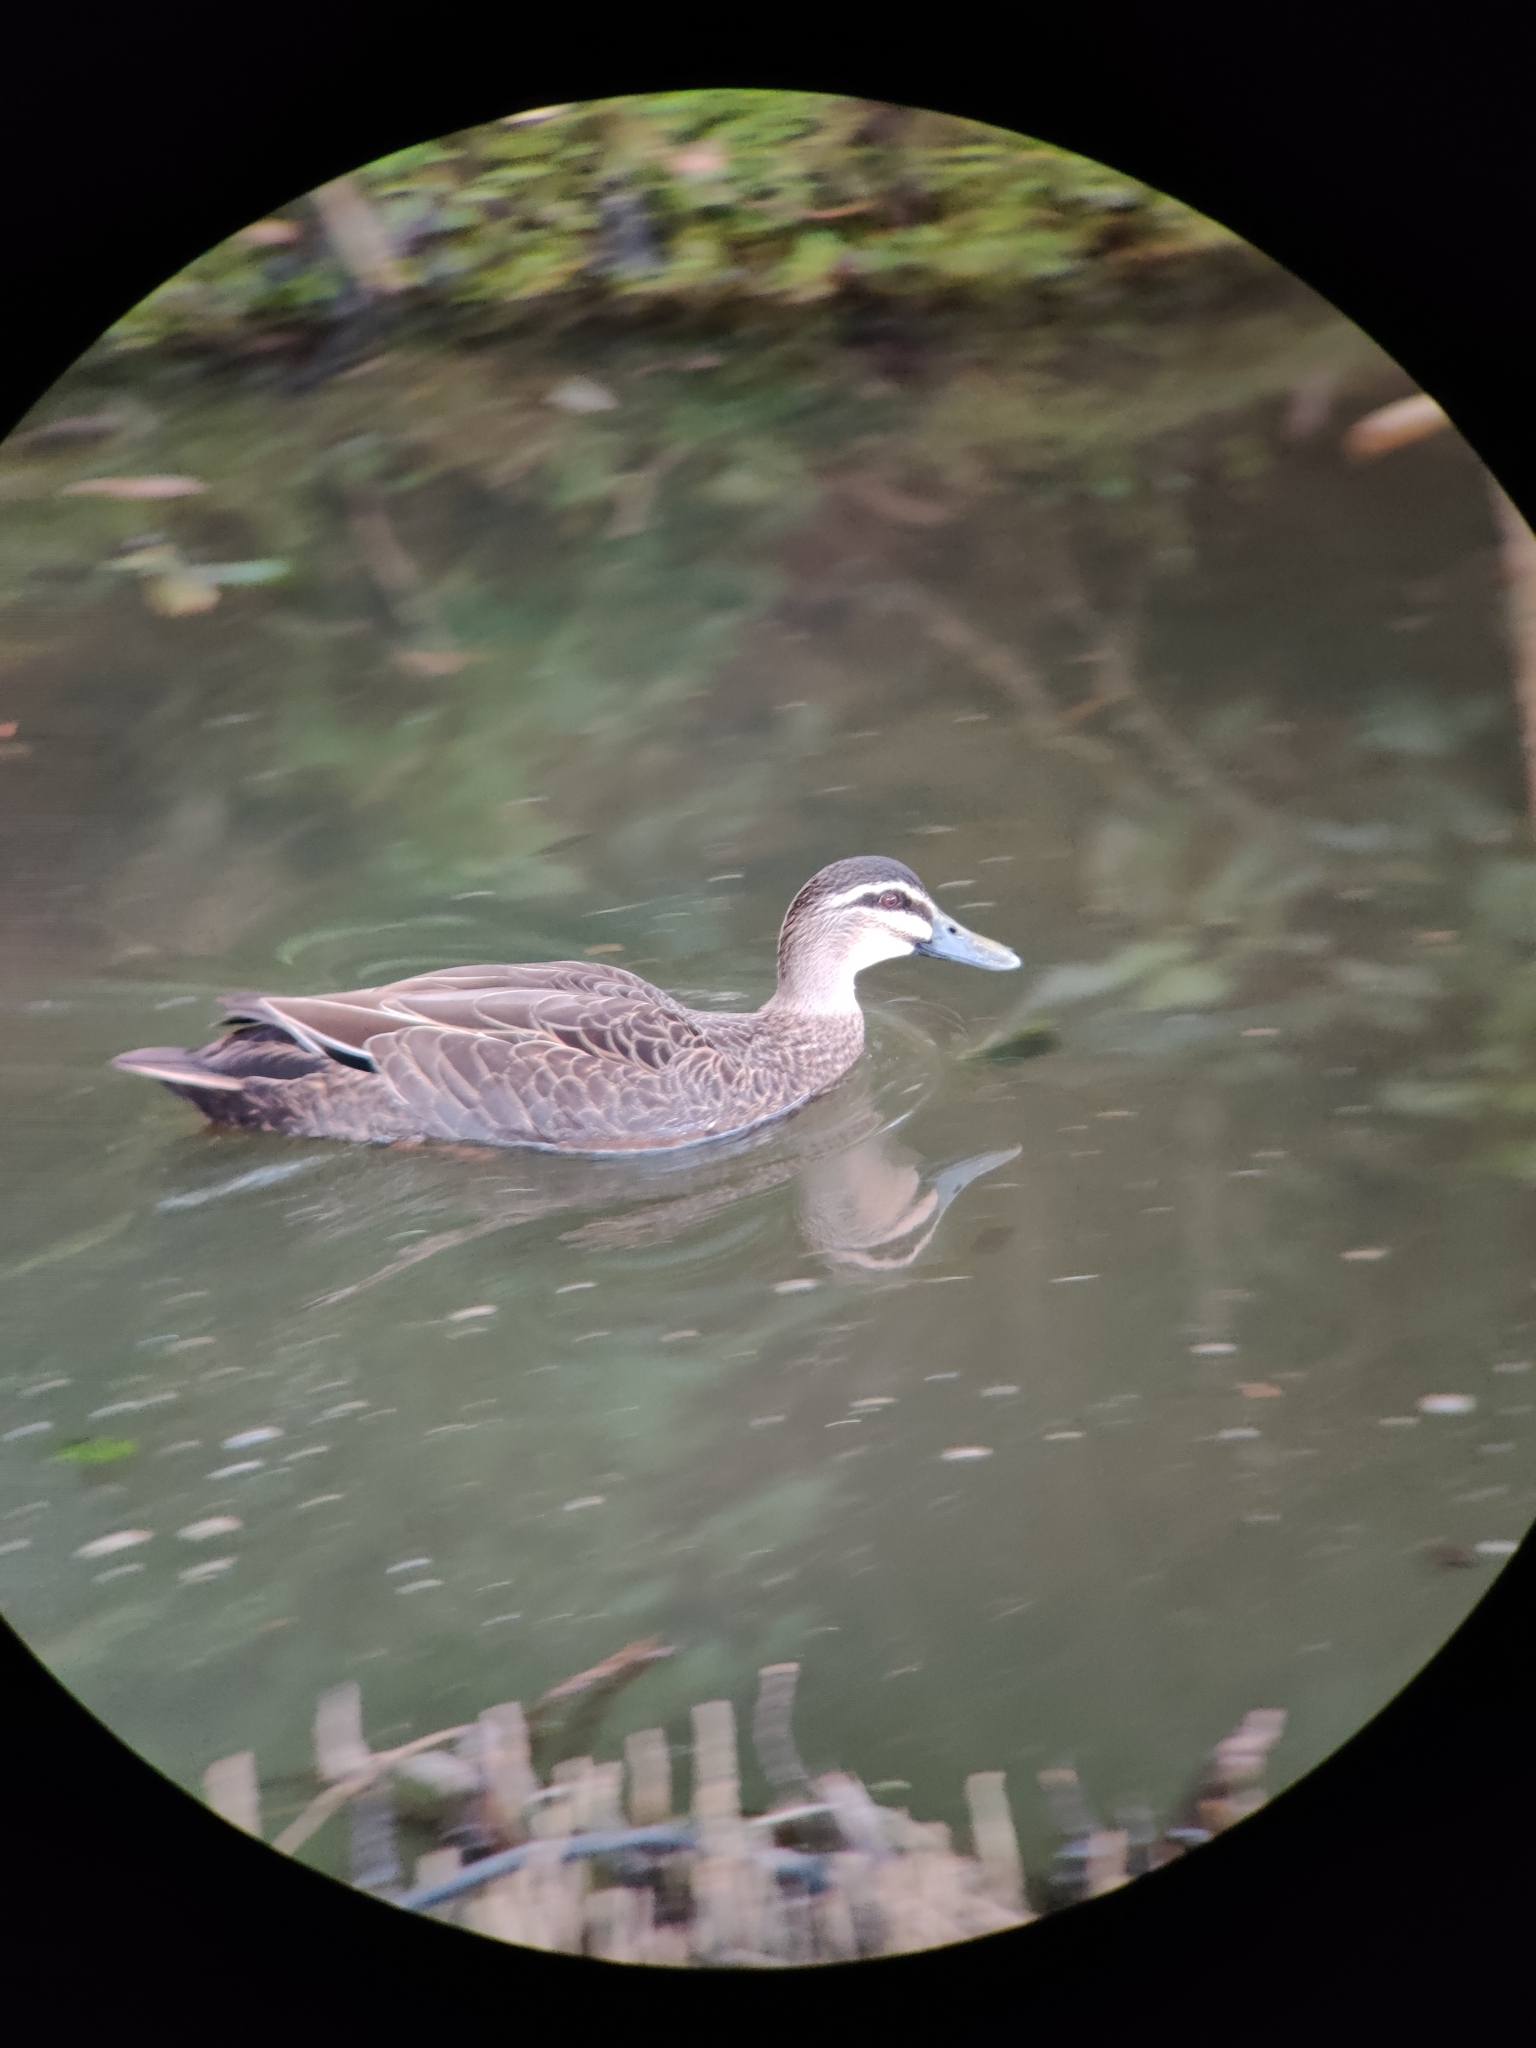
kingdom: Animalia
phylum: Chordata
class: Aves
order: Anseriformes
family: Anatidae
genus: Anas
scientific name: Anas superciliosa
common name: Pacific black duck
